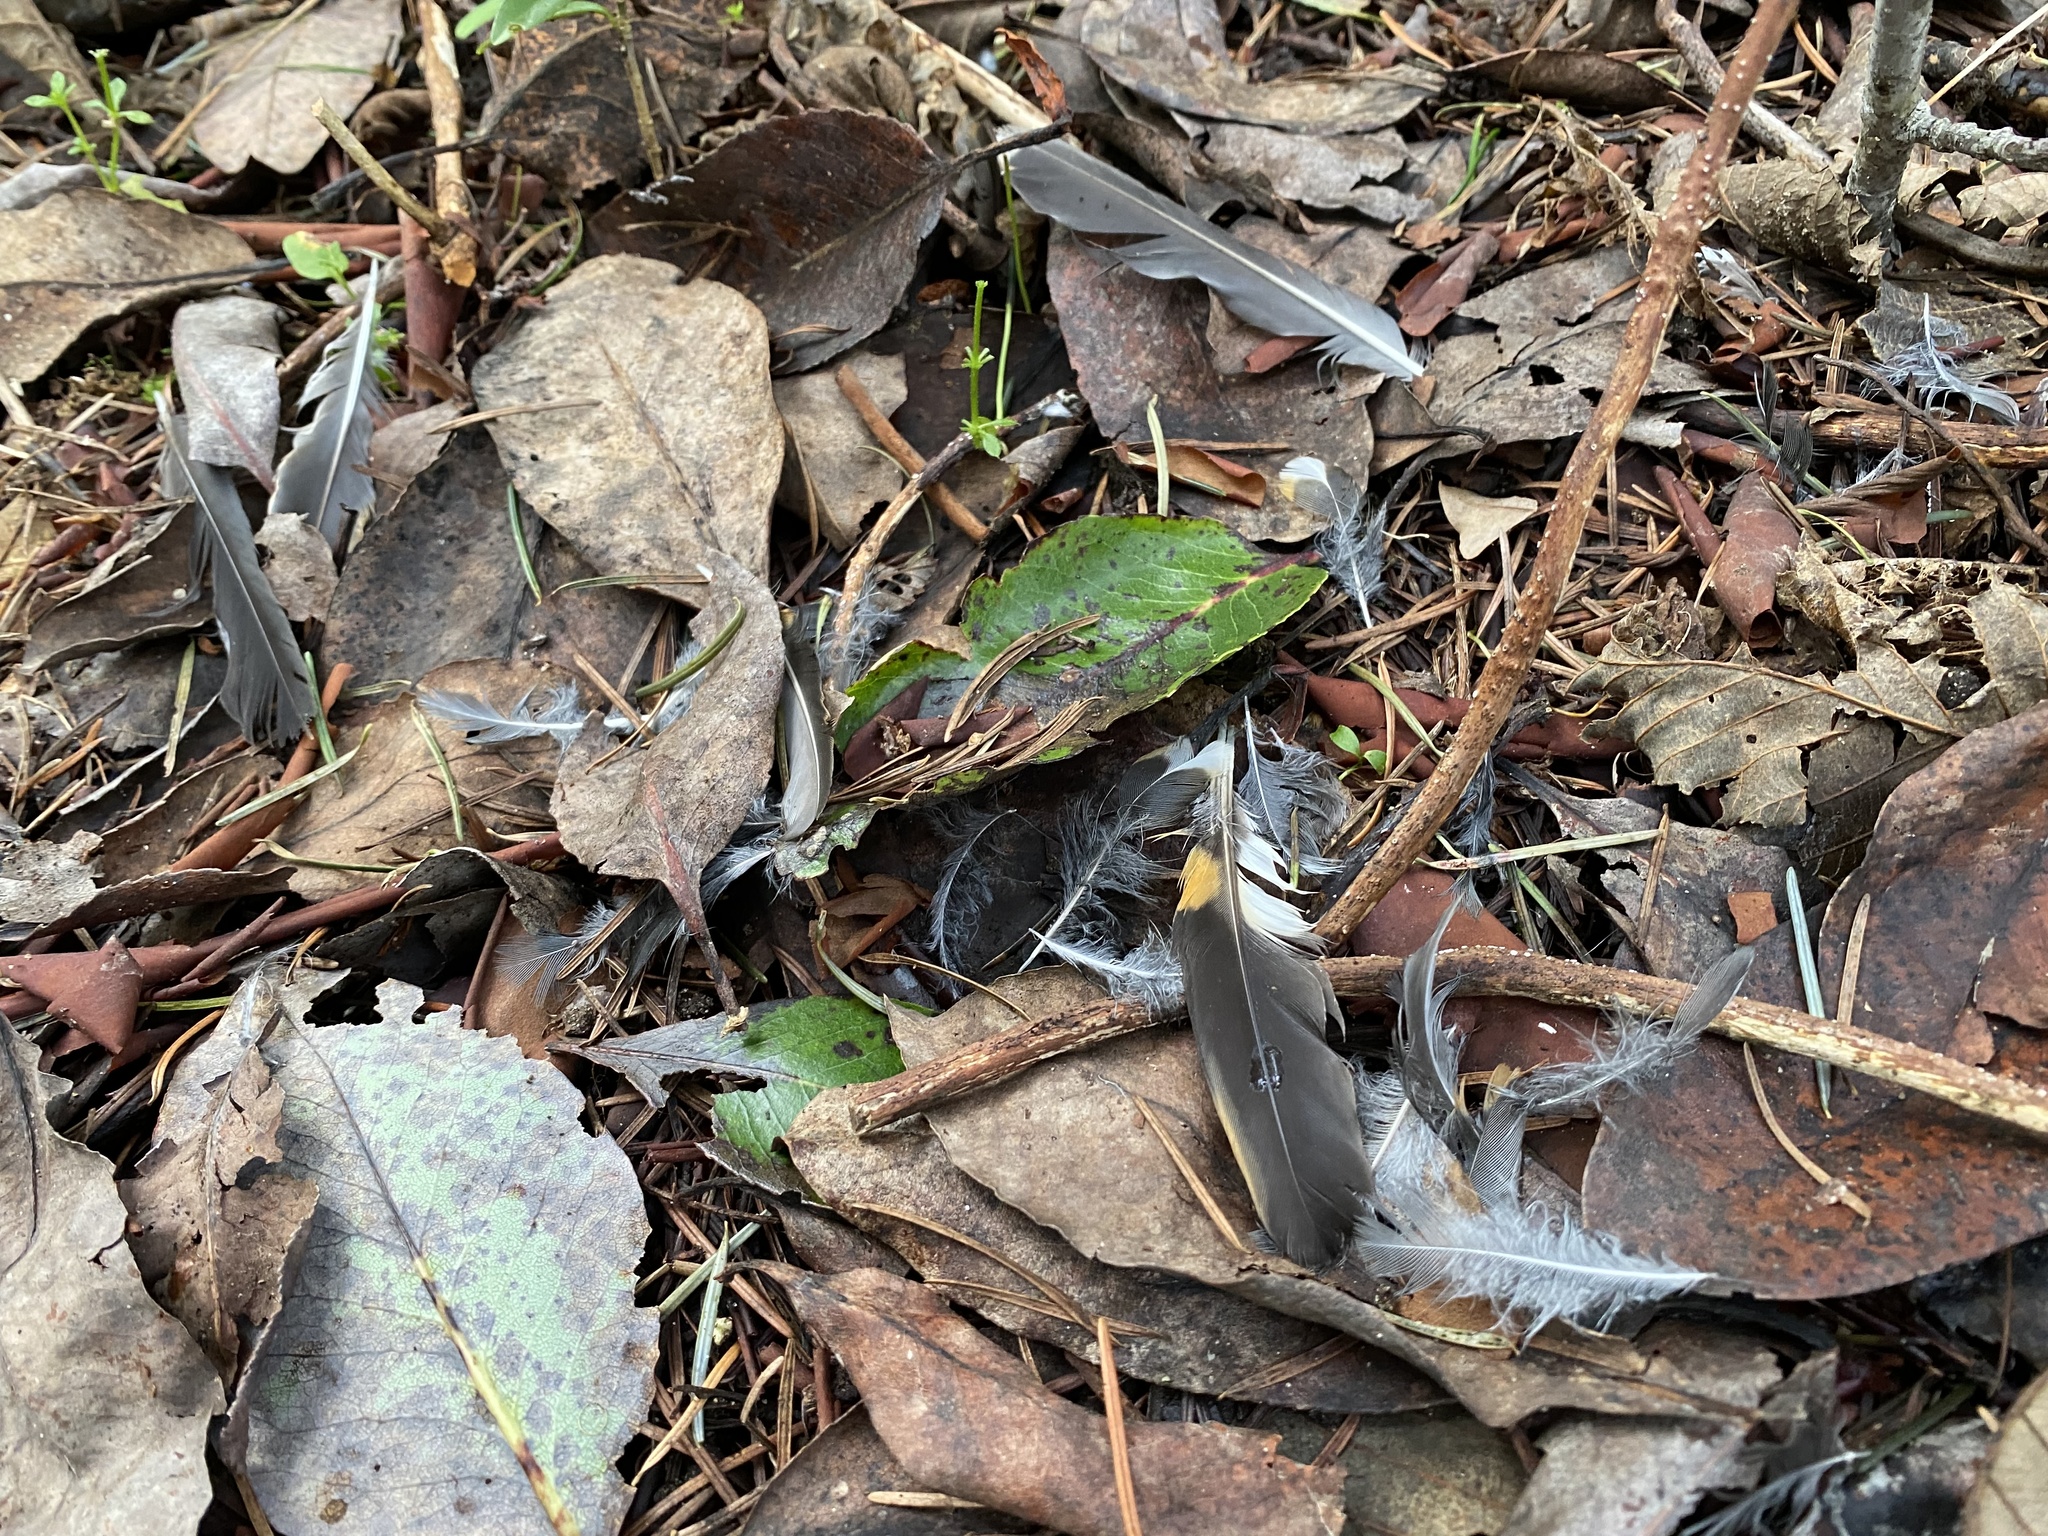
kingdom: Animalia
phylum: Chordata
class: Aves
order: Passeriformes
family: Turdidae
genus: Ixoreus
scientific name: Ixoreus naevius
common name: Varied thrush
